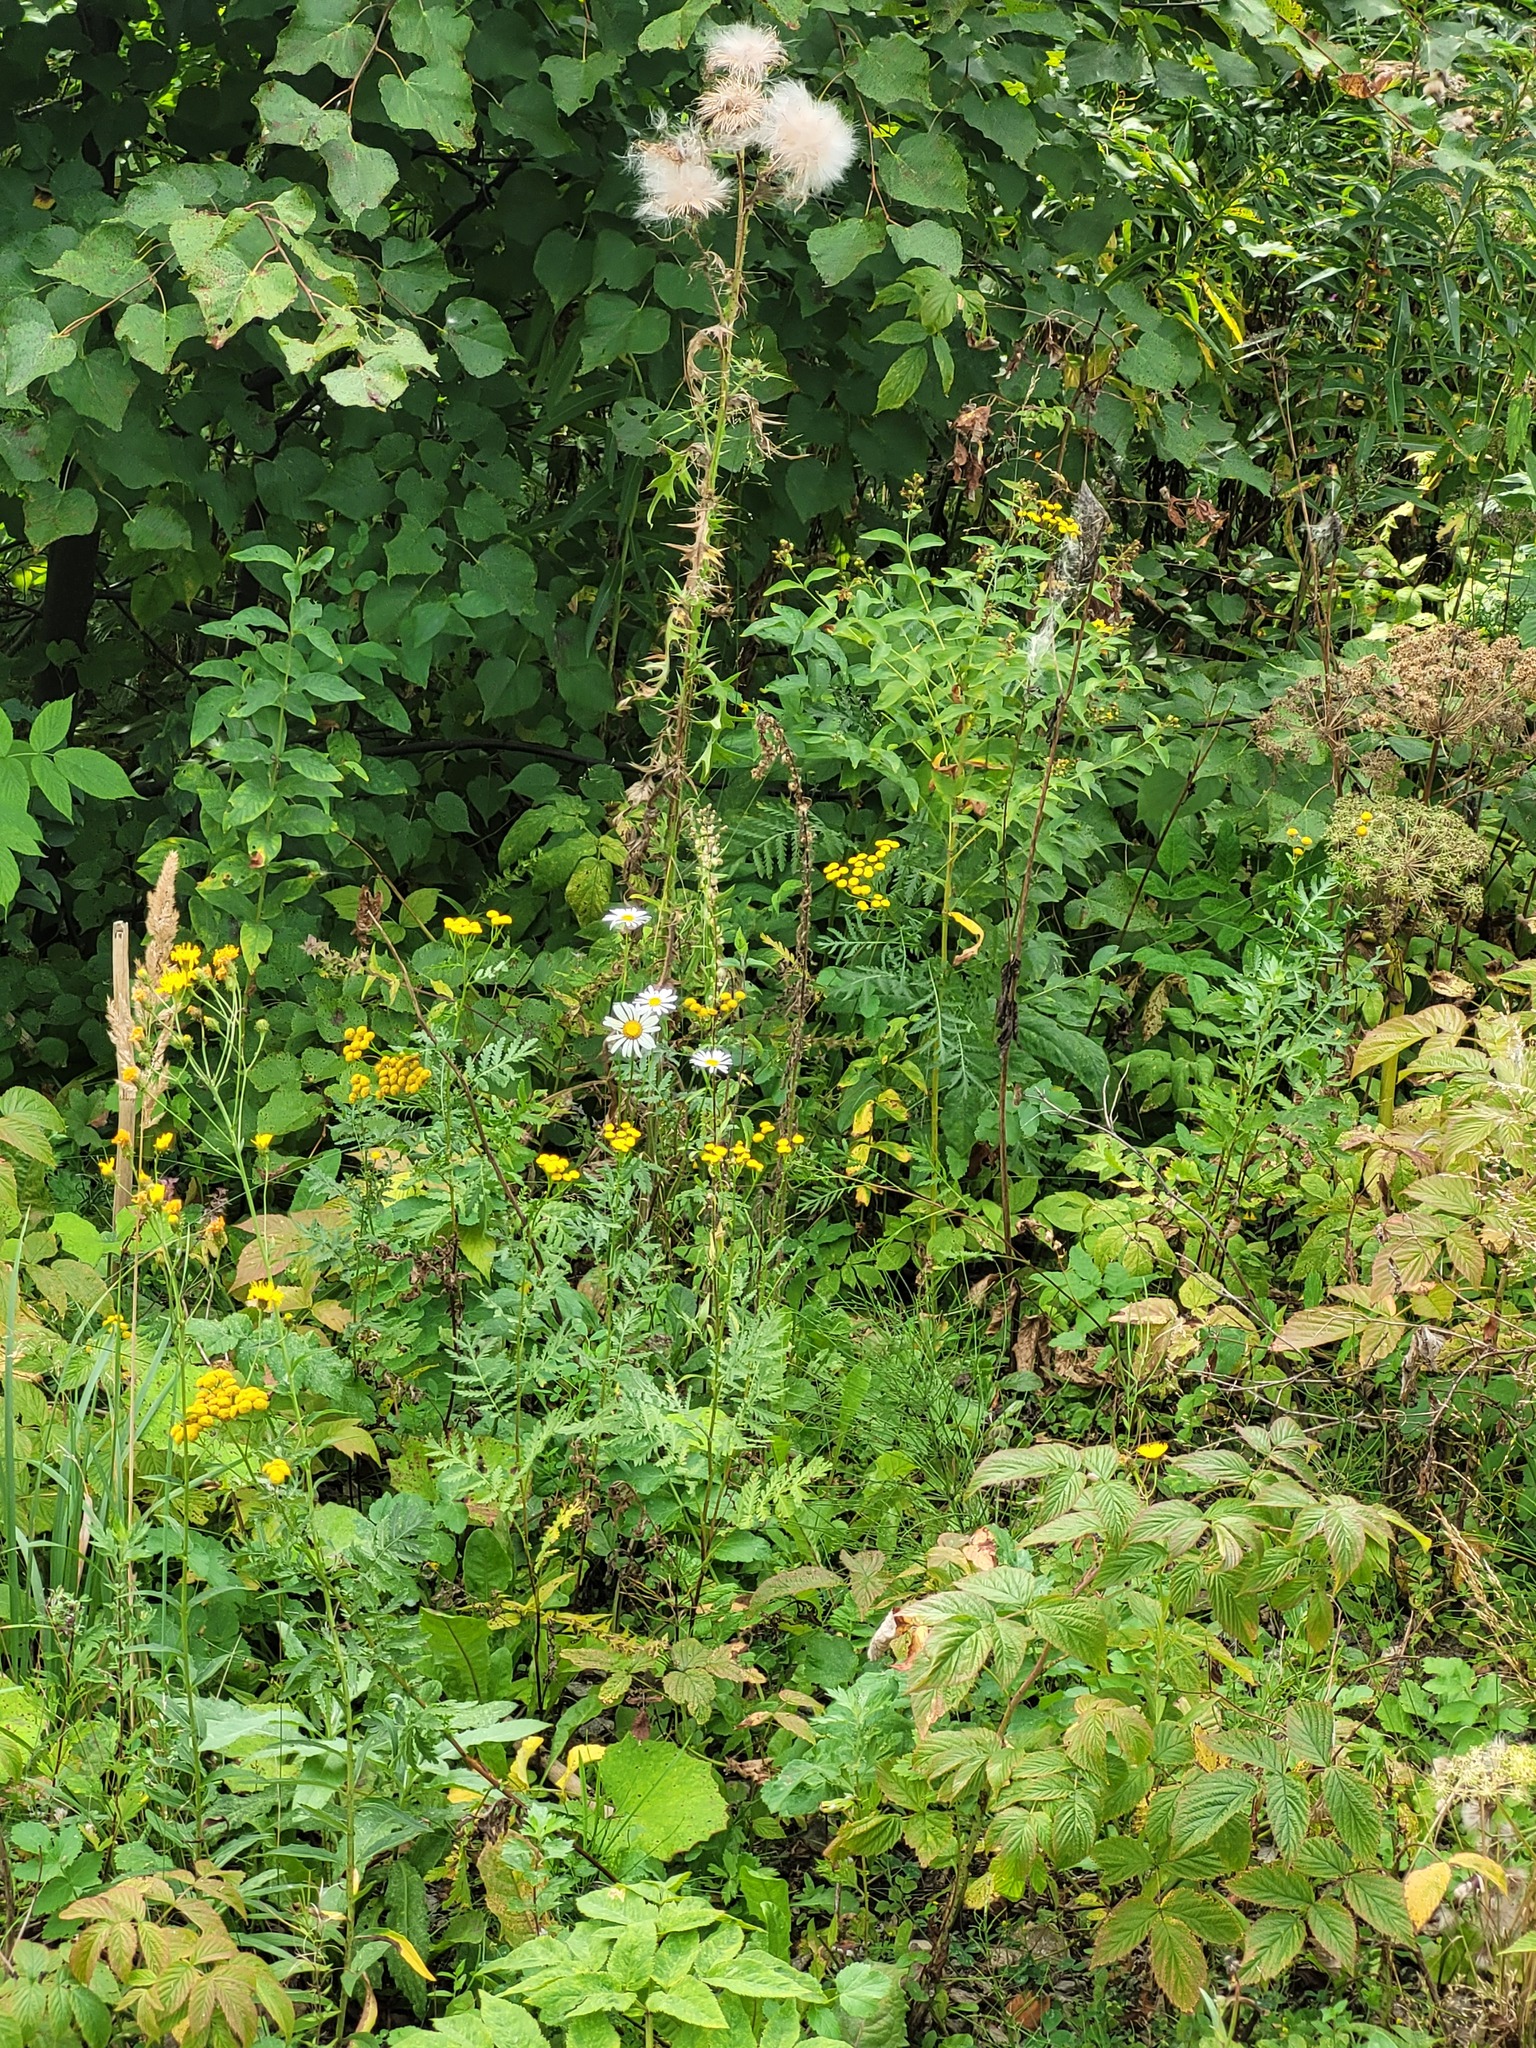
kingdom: Plantae
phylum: Tracheophyta
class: Magnoliopsida
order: Asterales
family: Asteraceae
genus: Cirsium
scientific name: Cirsium vulgare
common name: Bull thistle
